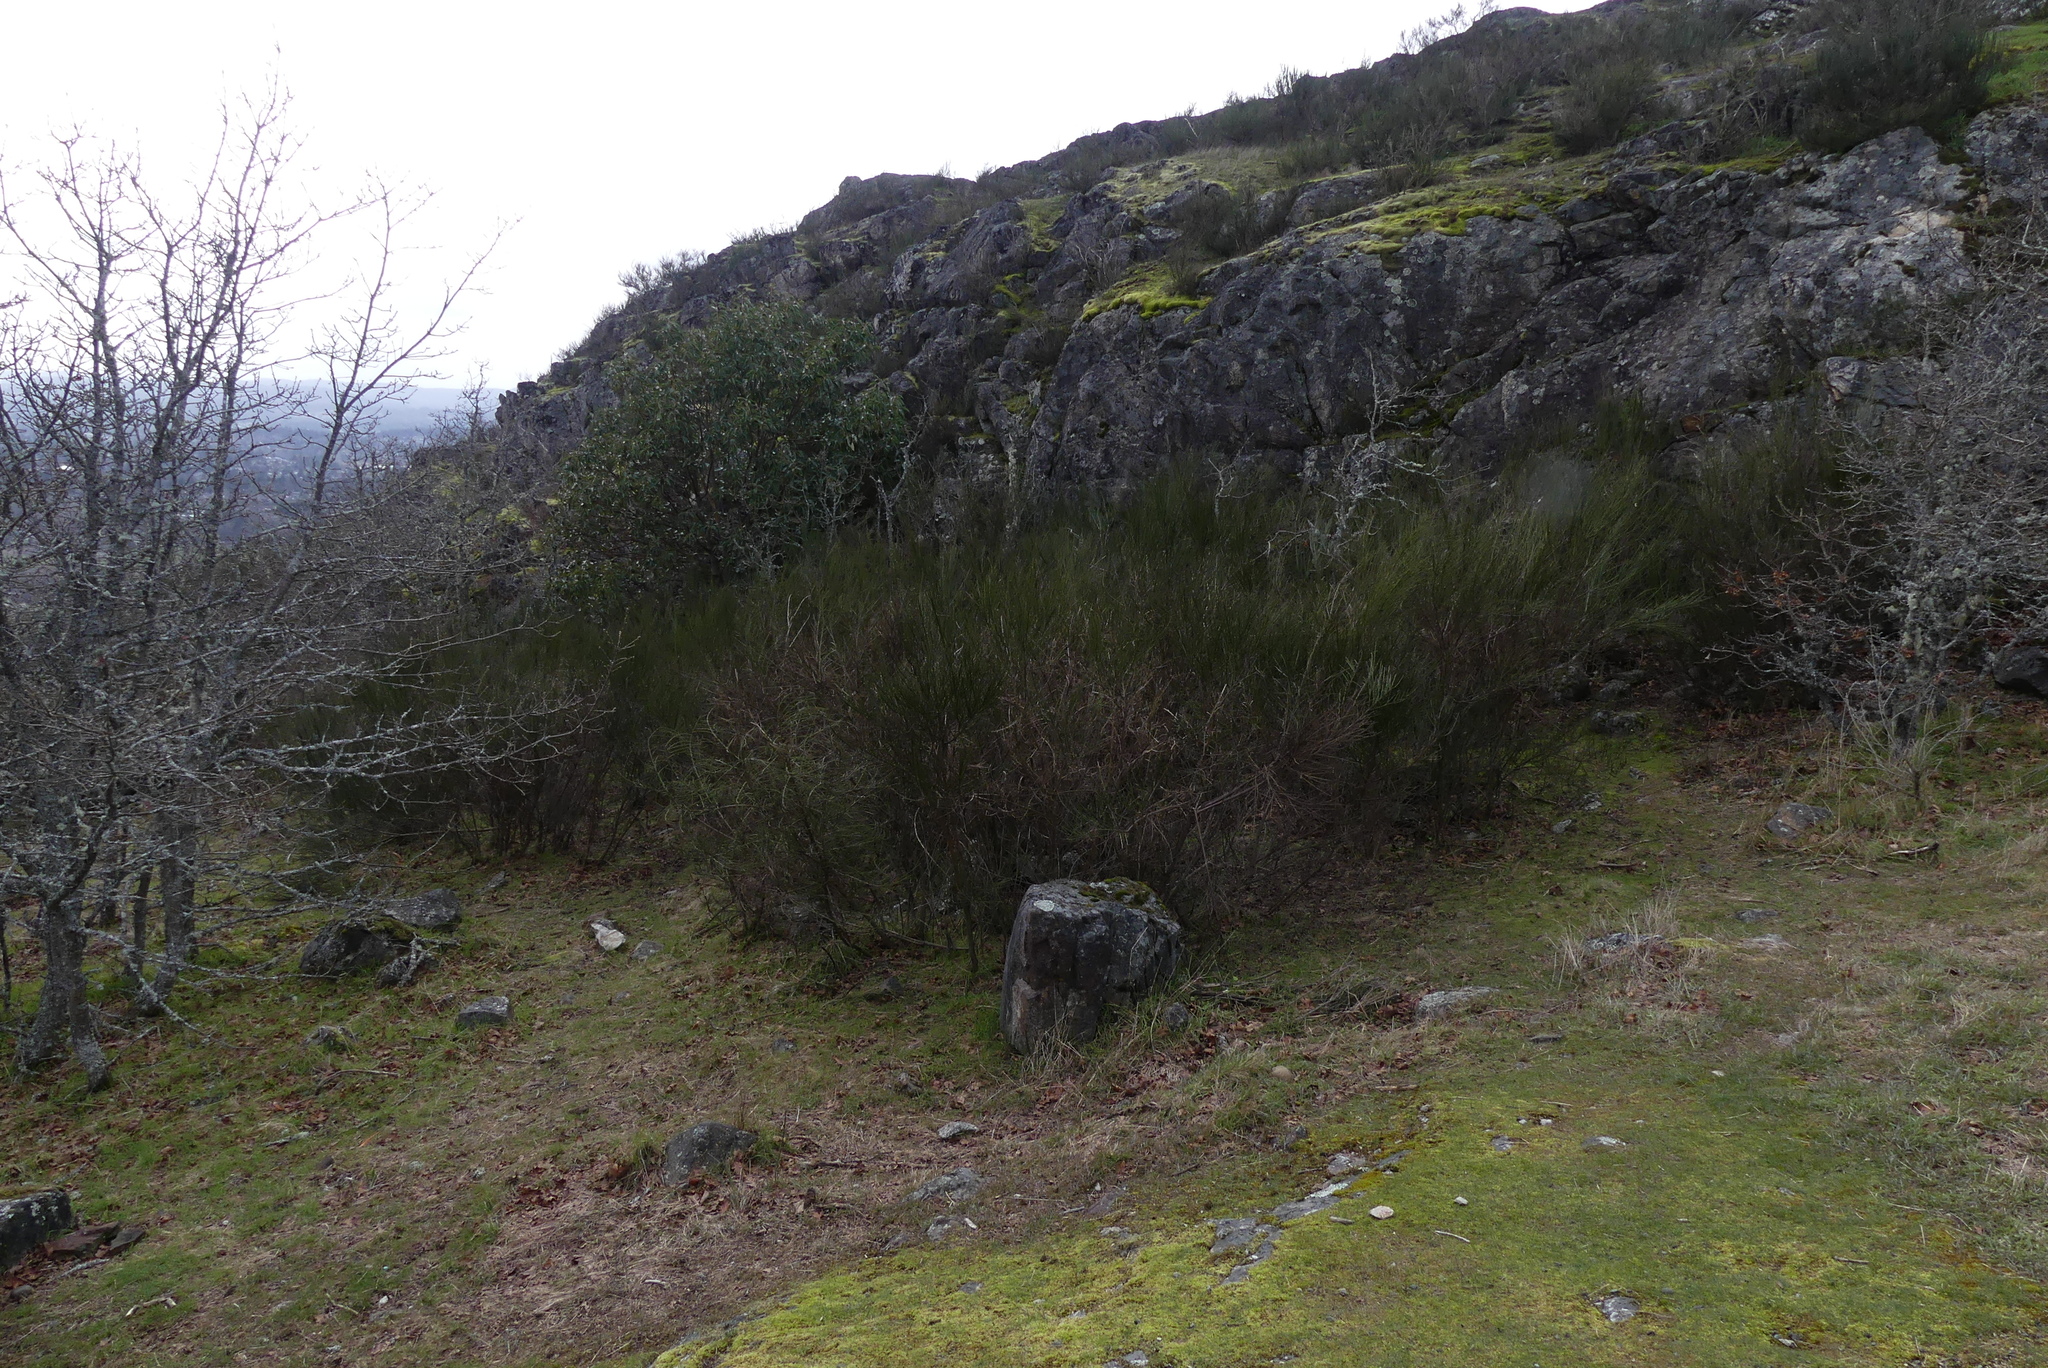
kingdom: Plantae
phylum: Tracheophyta
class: Magnoliopsida
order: Fabales
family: Fabaceae
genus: Cytisus
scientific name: Cytisus scoparius
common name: Scotch broom
